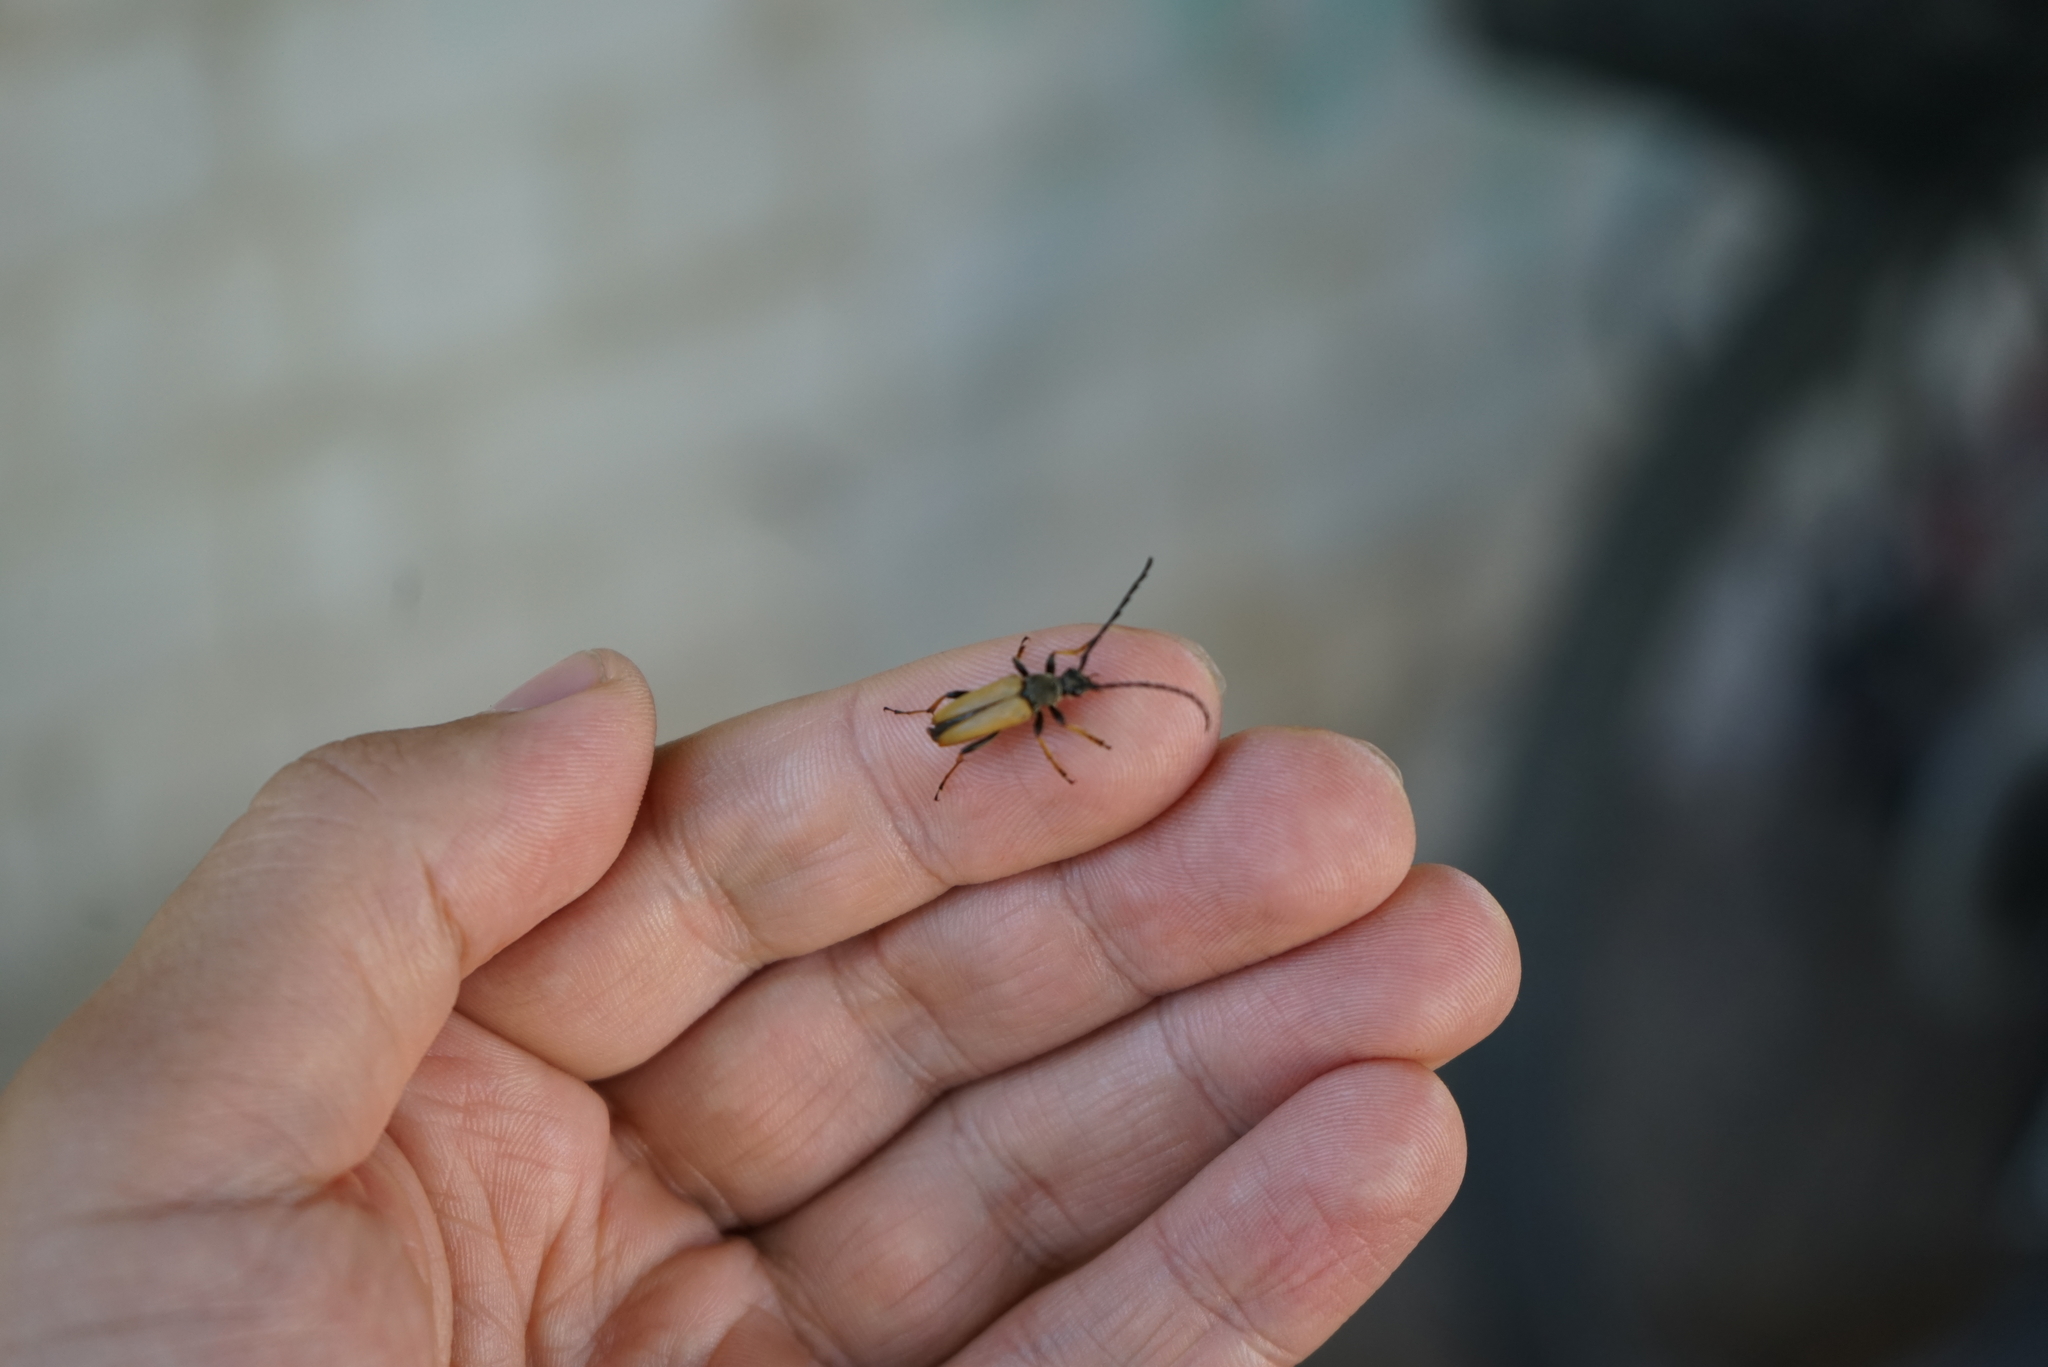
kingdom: Animalia
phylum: Arthropoda
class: Insecta
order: Coleoptera
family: Cerambycidae
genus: Stictoleptura
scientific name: Stictoleptura rubra
